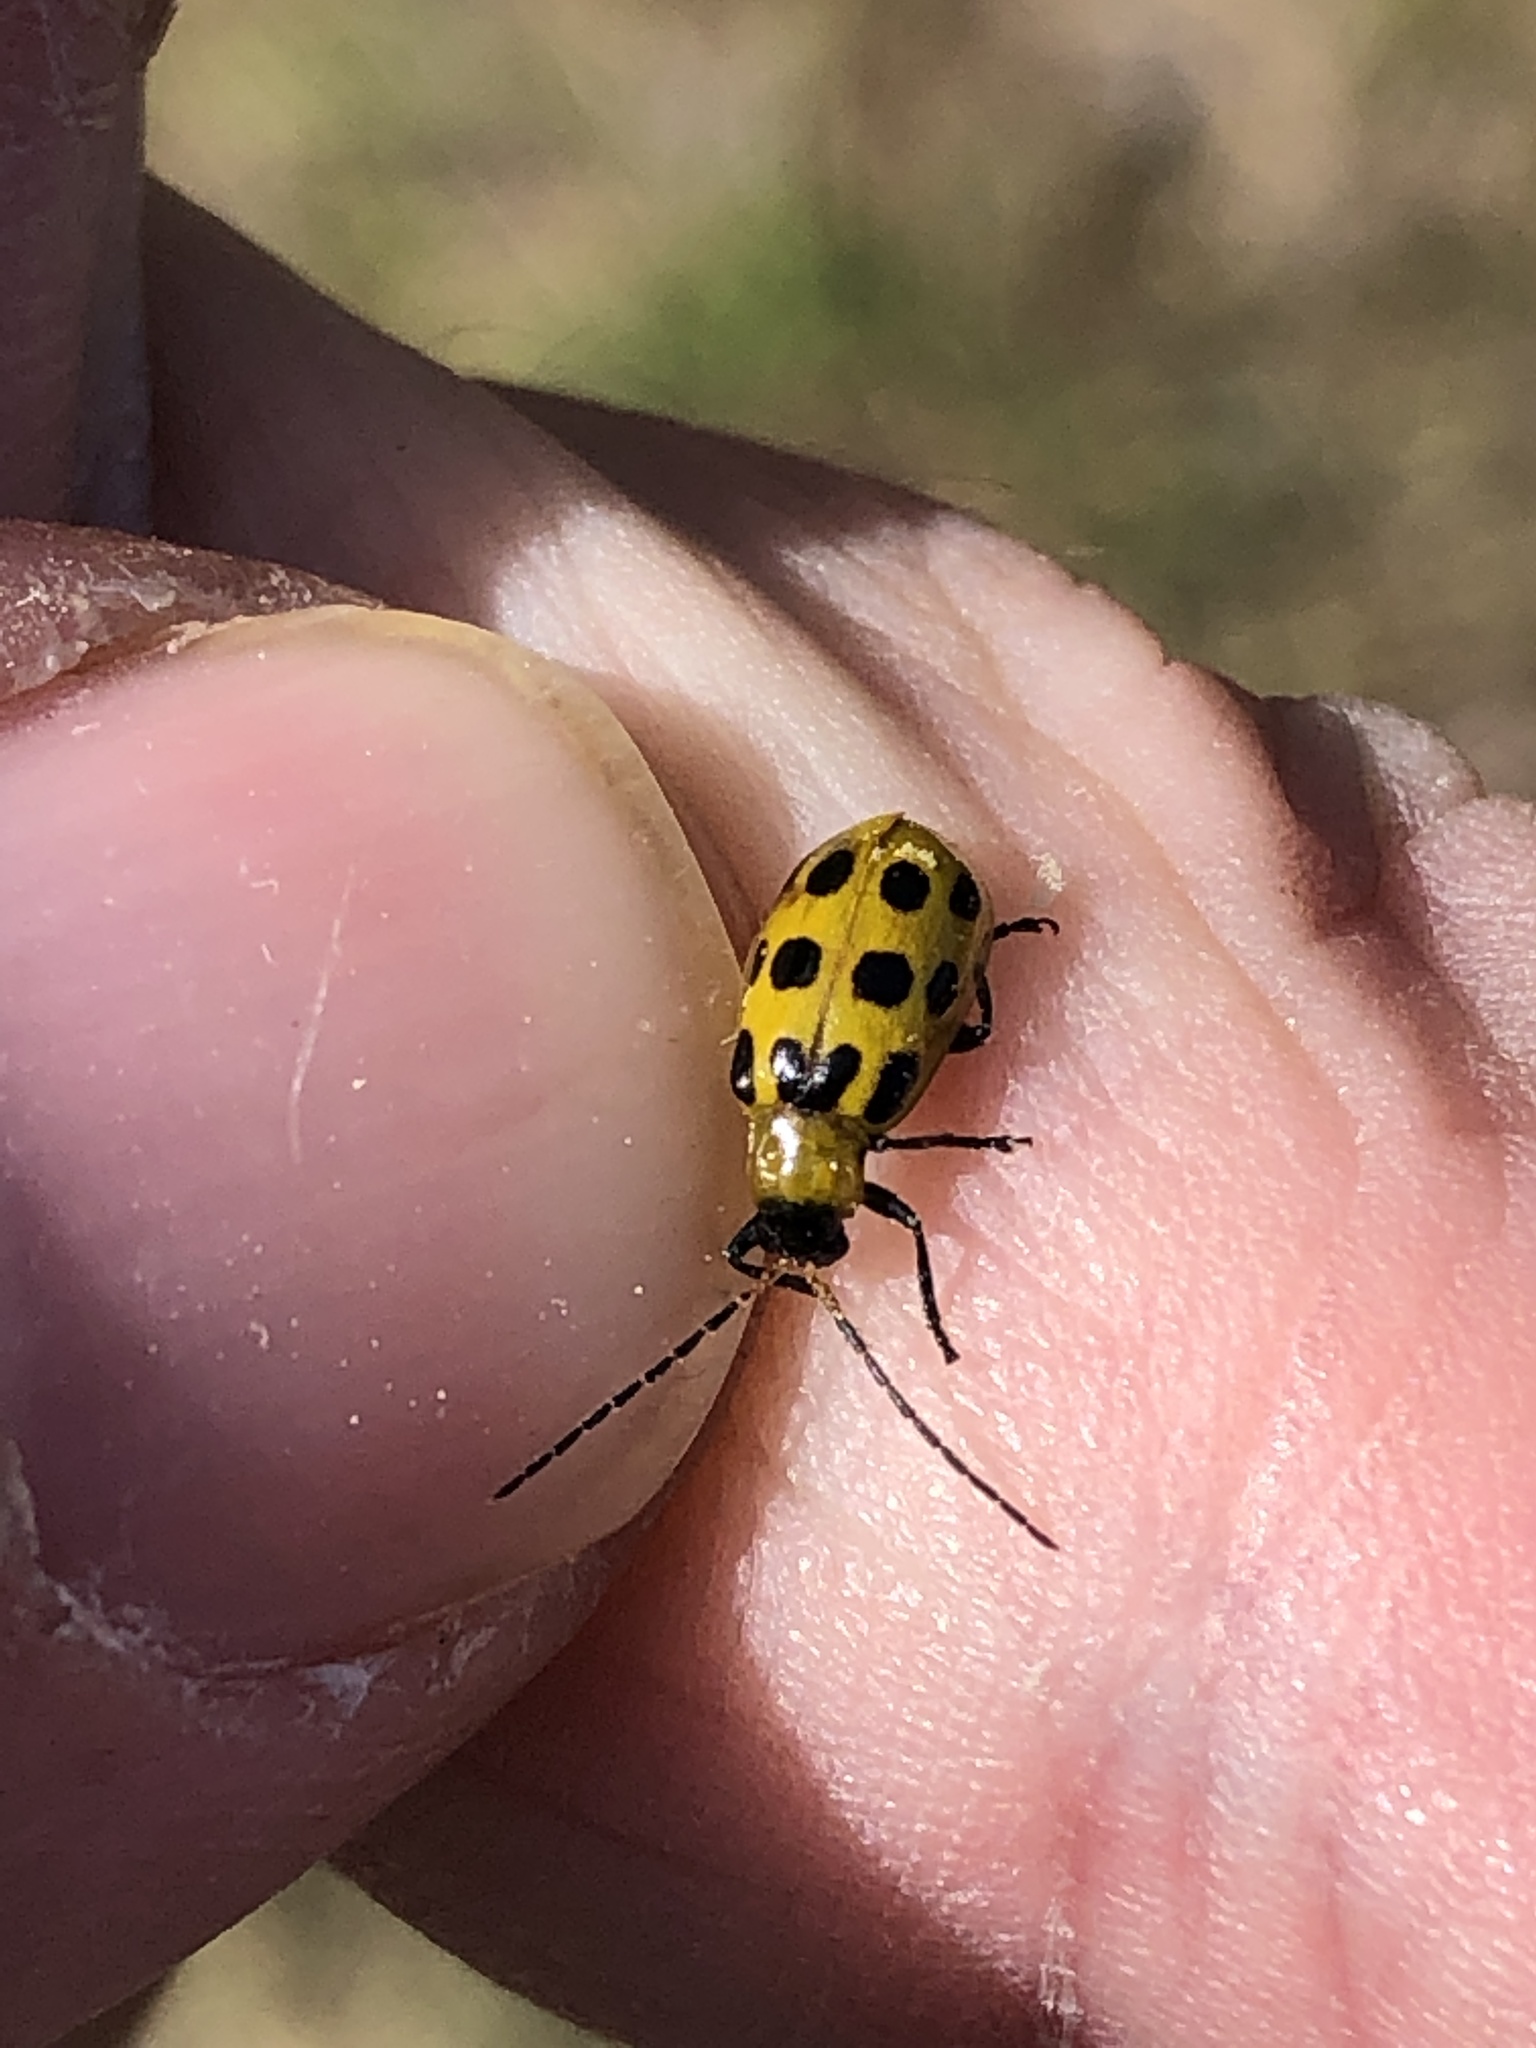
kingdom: Animalia
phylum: Arthropoda
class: Insecta
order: Coleoptera
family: Chrysomelidae
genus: Diabrotica
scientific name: Diabrotica undecimpunctata
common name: Spotted cucumber beetle
